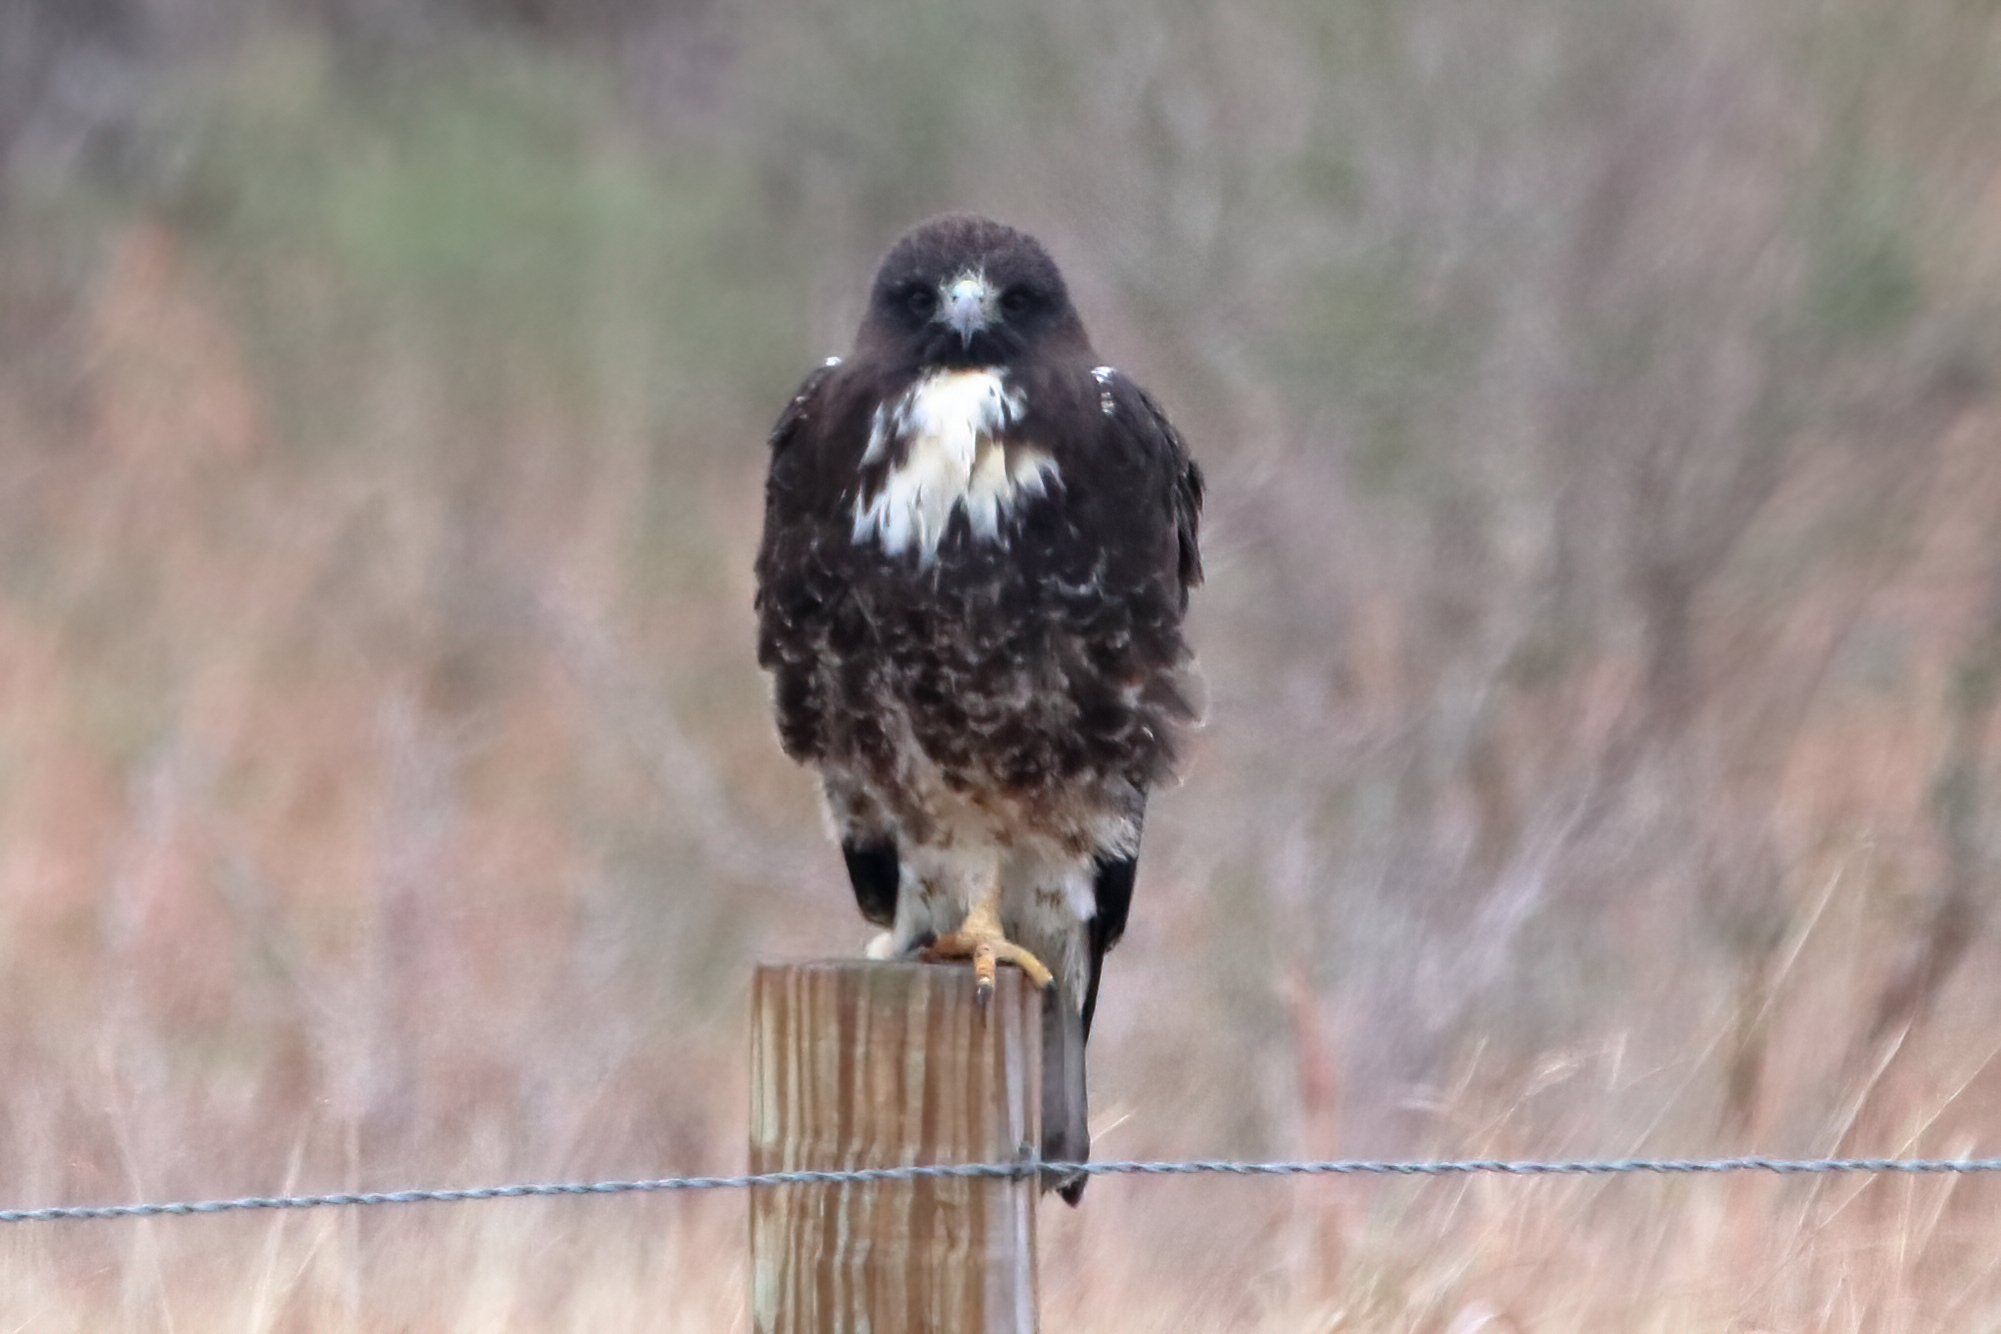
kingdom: Animalia
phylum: Chordata
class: Aves
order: Accipitriformes
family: Accipitridae
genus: Buteo
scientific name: Buteo albicaudatus
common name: White-tailed hawk
